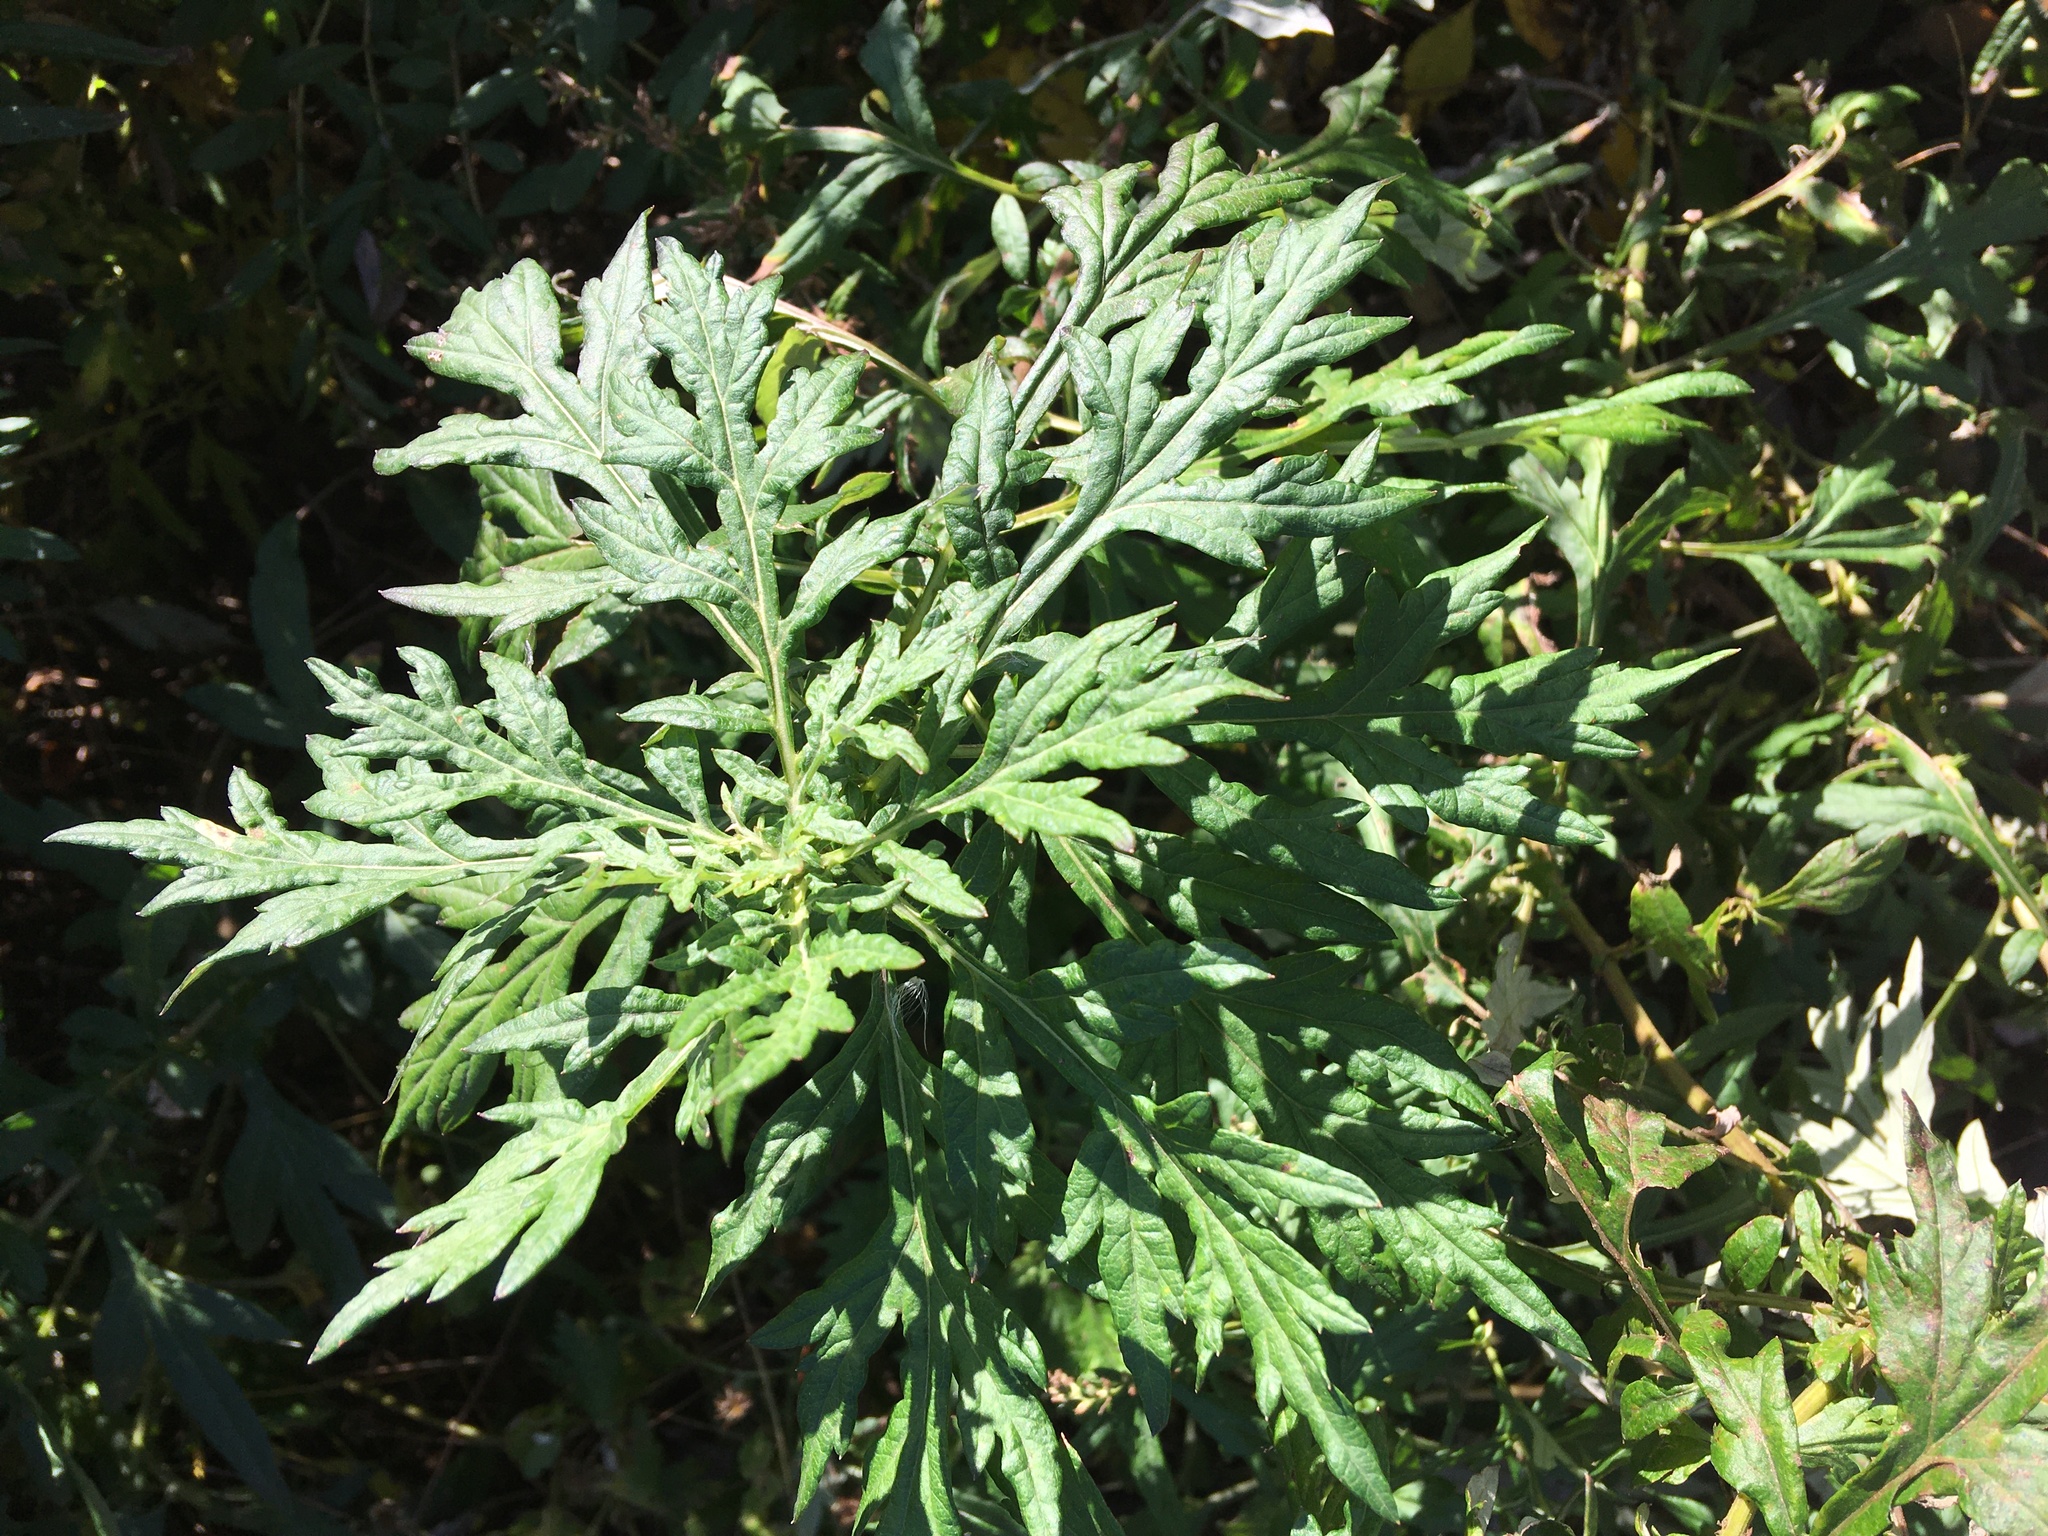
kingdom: Plantae
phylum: Tracheophyta
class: Magnoliopsida
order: Asterales
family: Asteraceae
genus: Artemisia
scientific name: Artemisia vulgaris
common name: Mugwort
